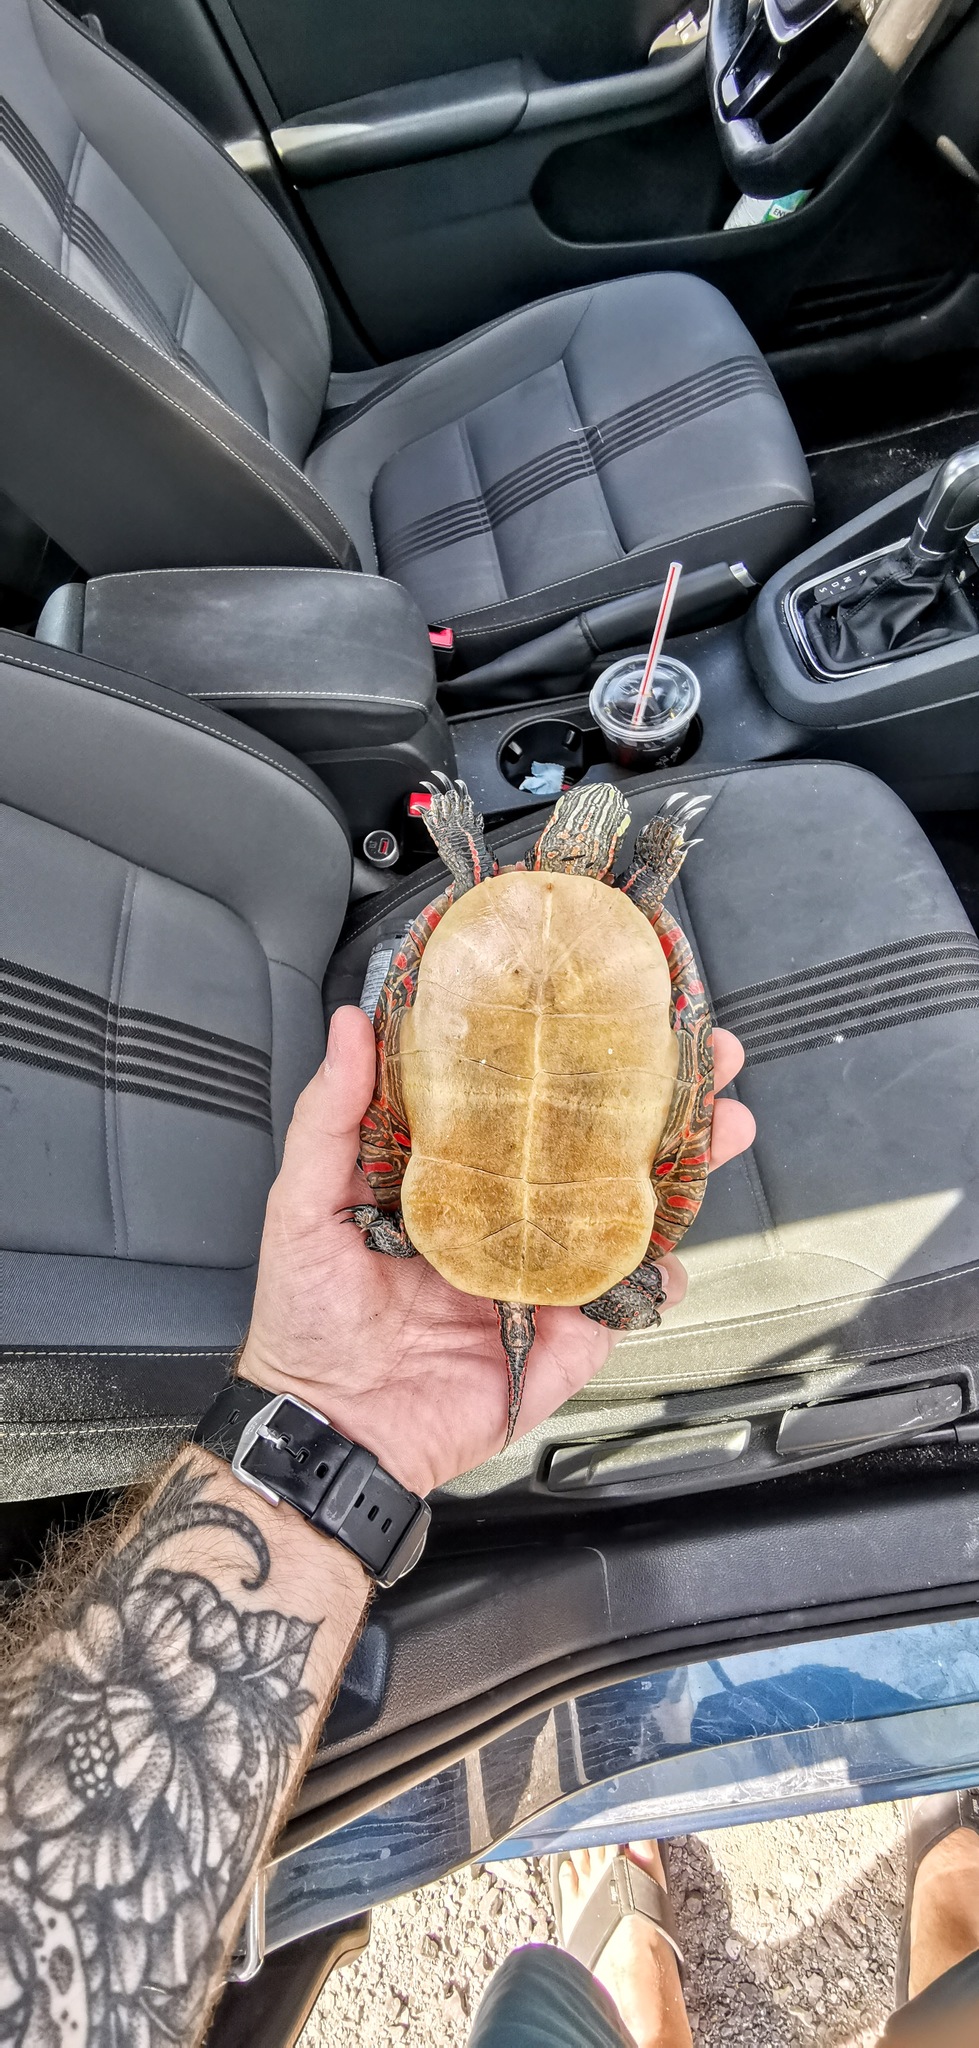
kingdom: Animalia
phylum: Chordata
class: Testudines
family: Emydidae
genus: Chrysemys
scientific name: Chrysemys picta
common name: Painted turtle
